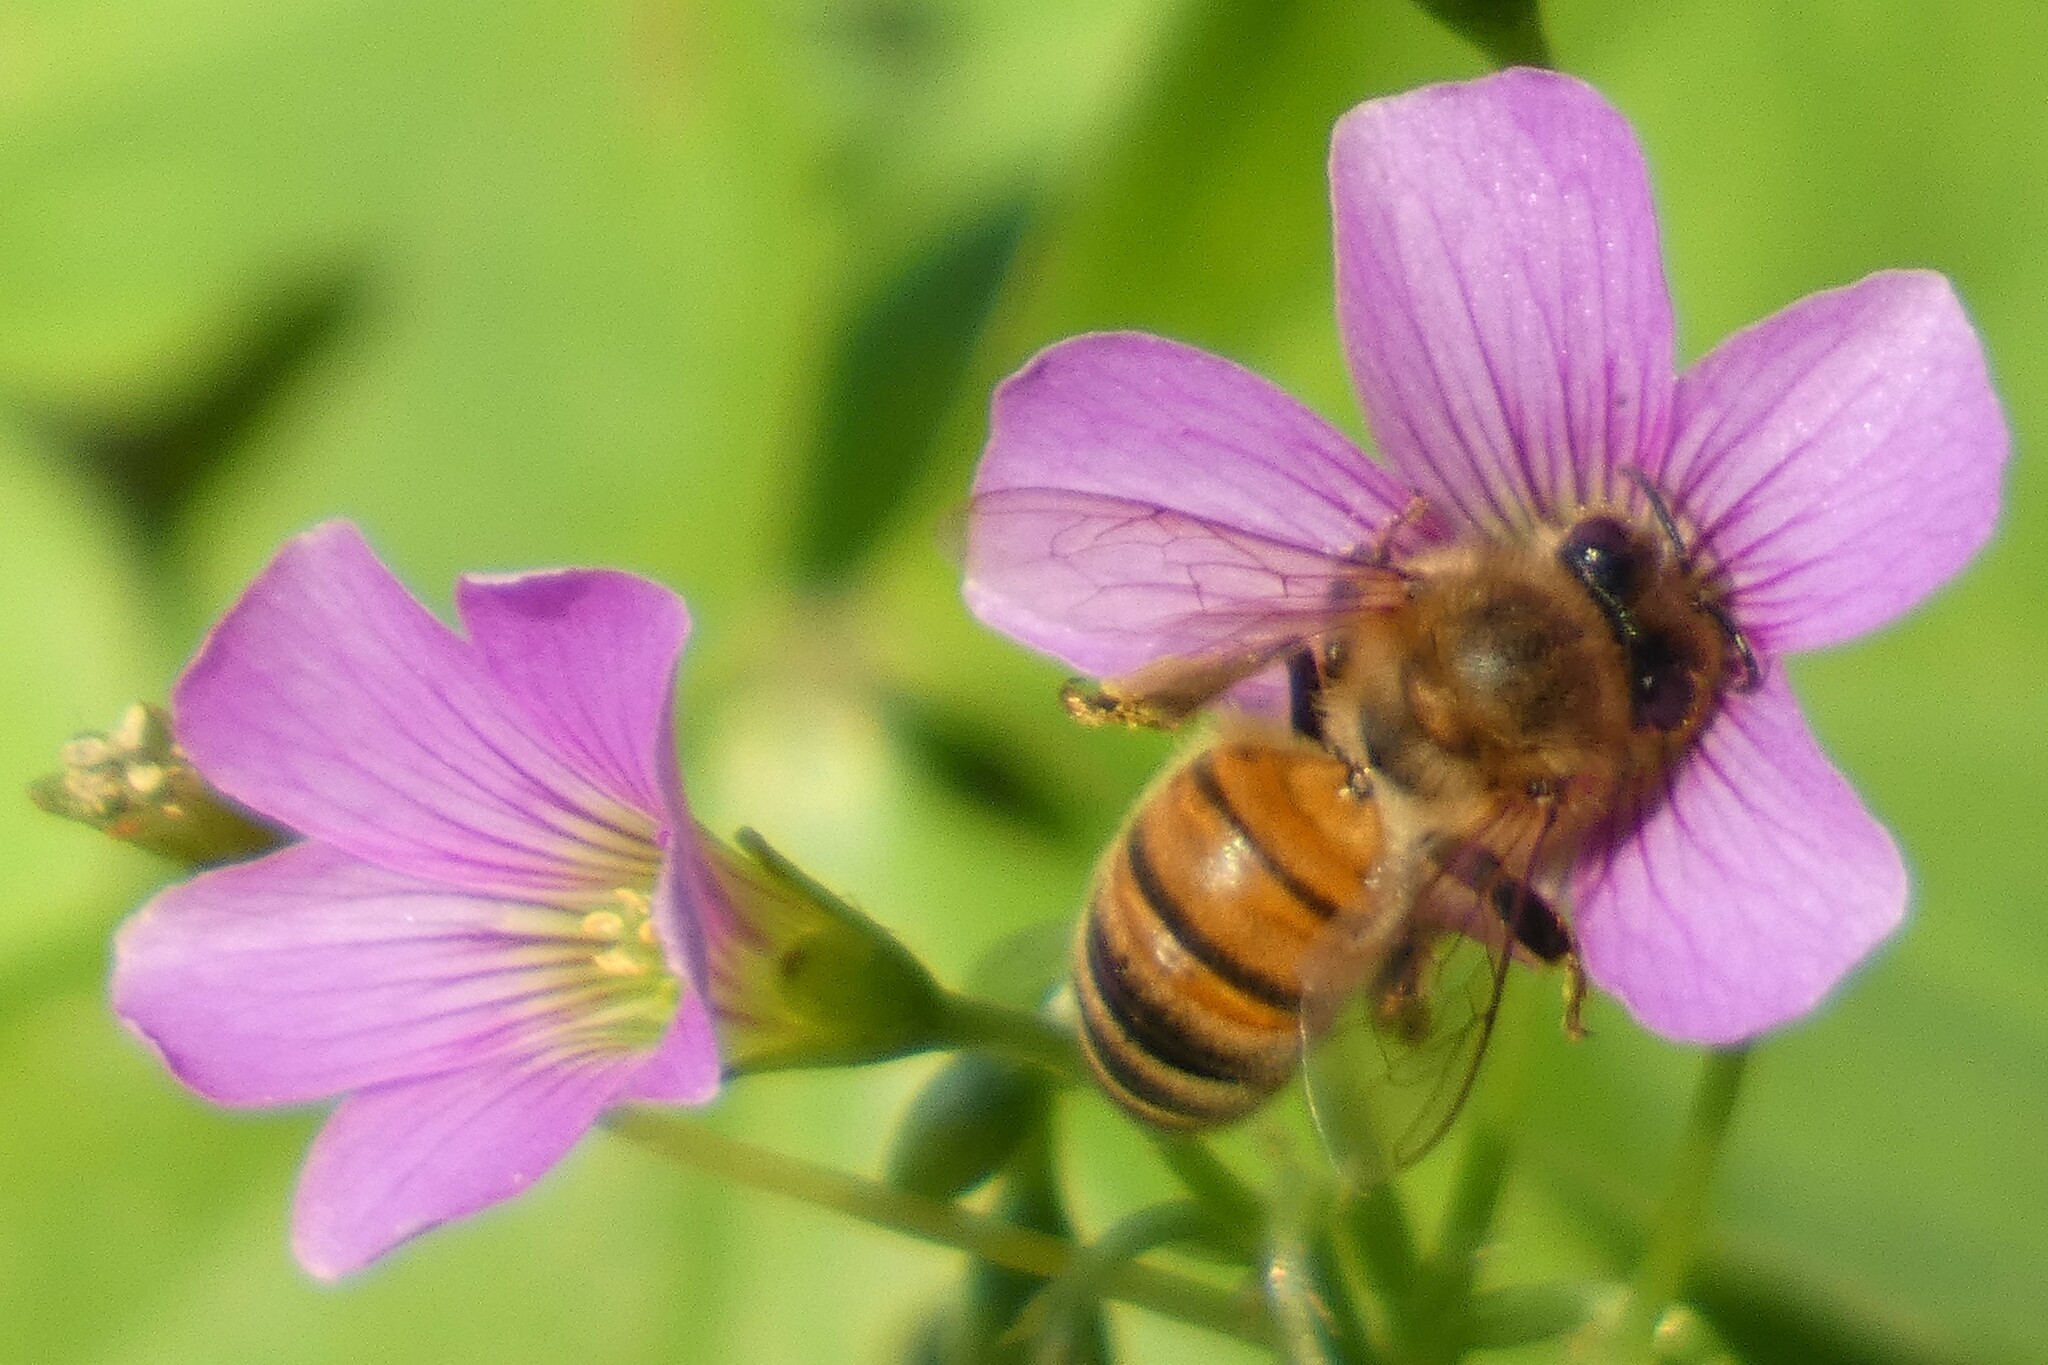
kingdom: Animalia
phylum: Arthropoda
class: Insecta
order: Hymenoptera
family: Apidae
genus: Apis
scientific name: Apis mellifera
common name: Honey bee
